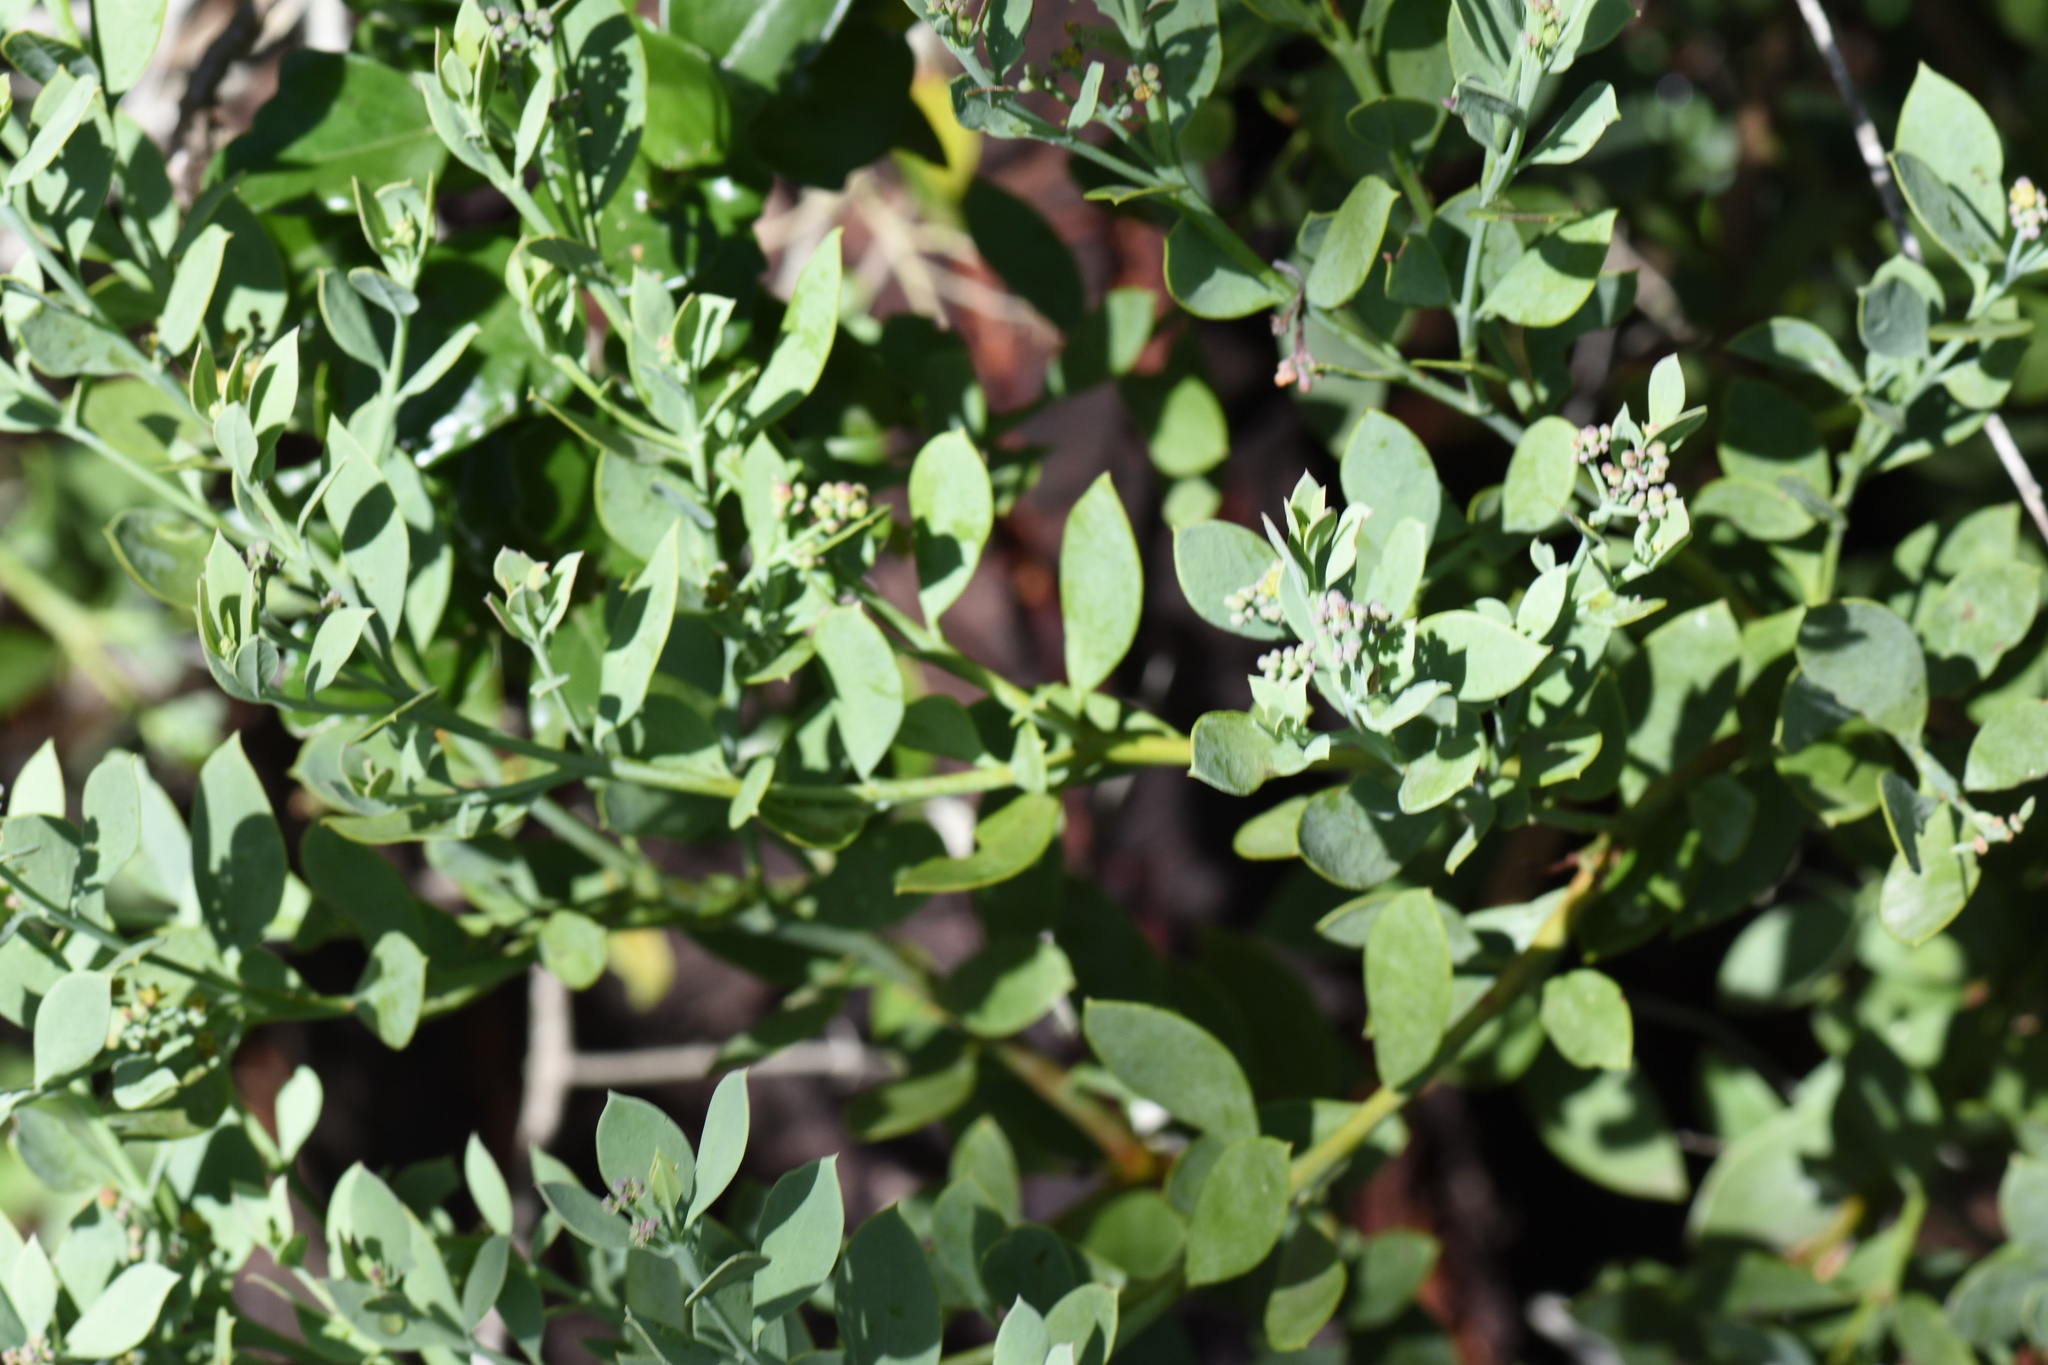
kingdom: Plantae
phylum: Tracheophyta
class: Magnoliopsida
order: Santalales
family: Santalaceae
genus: Osyris
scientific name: Osyris compressa
